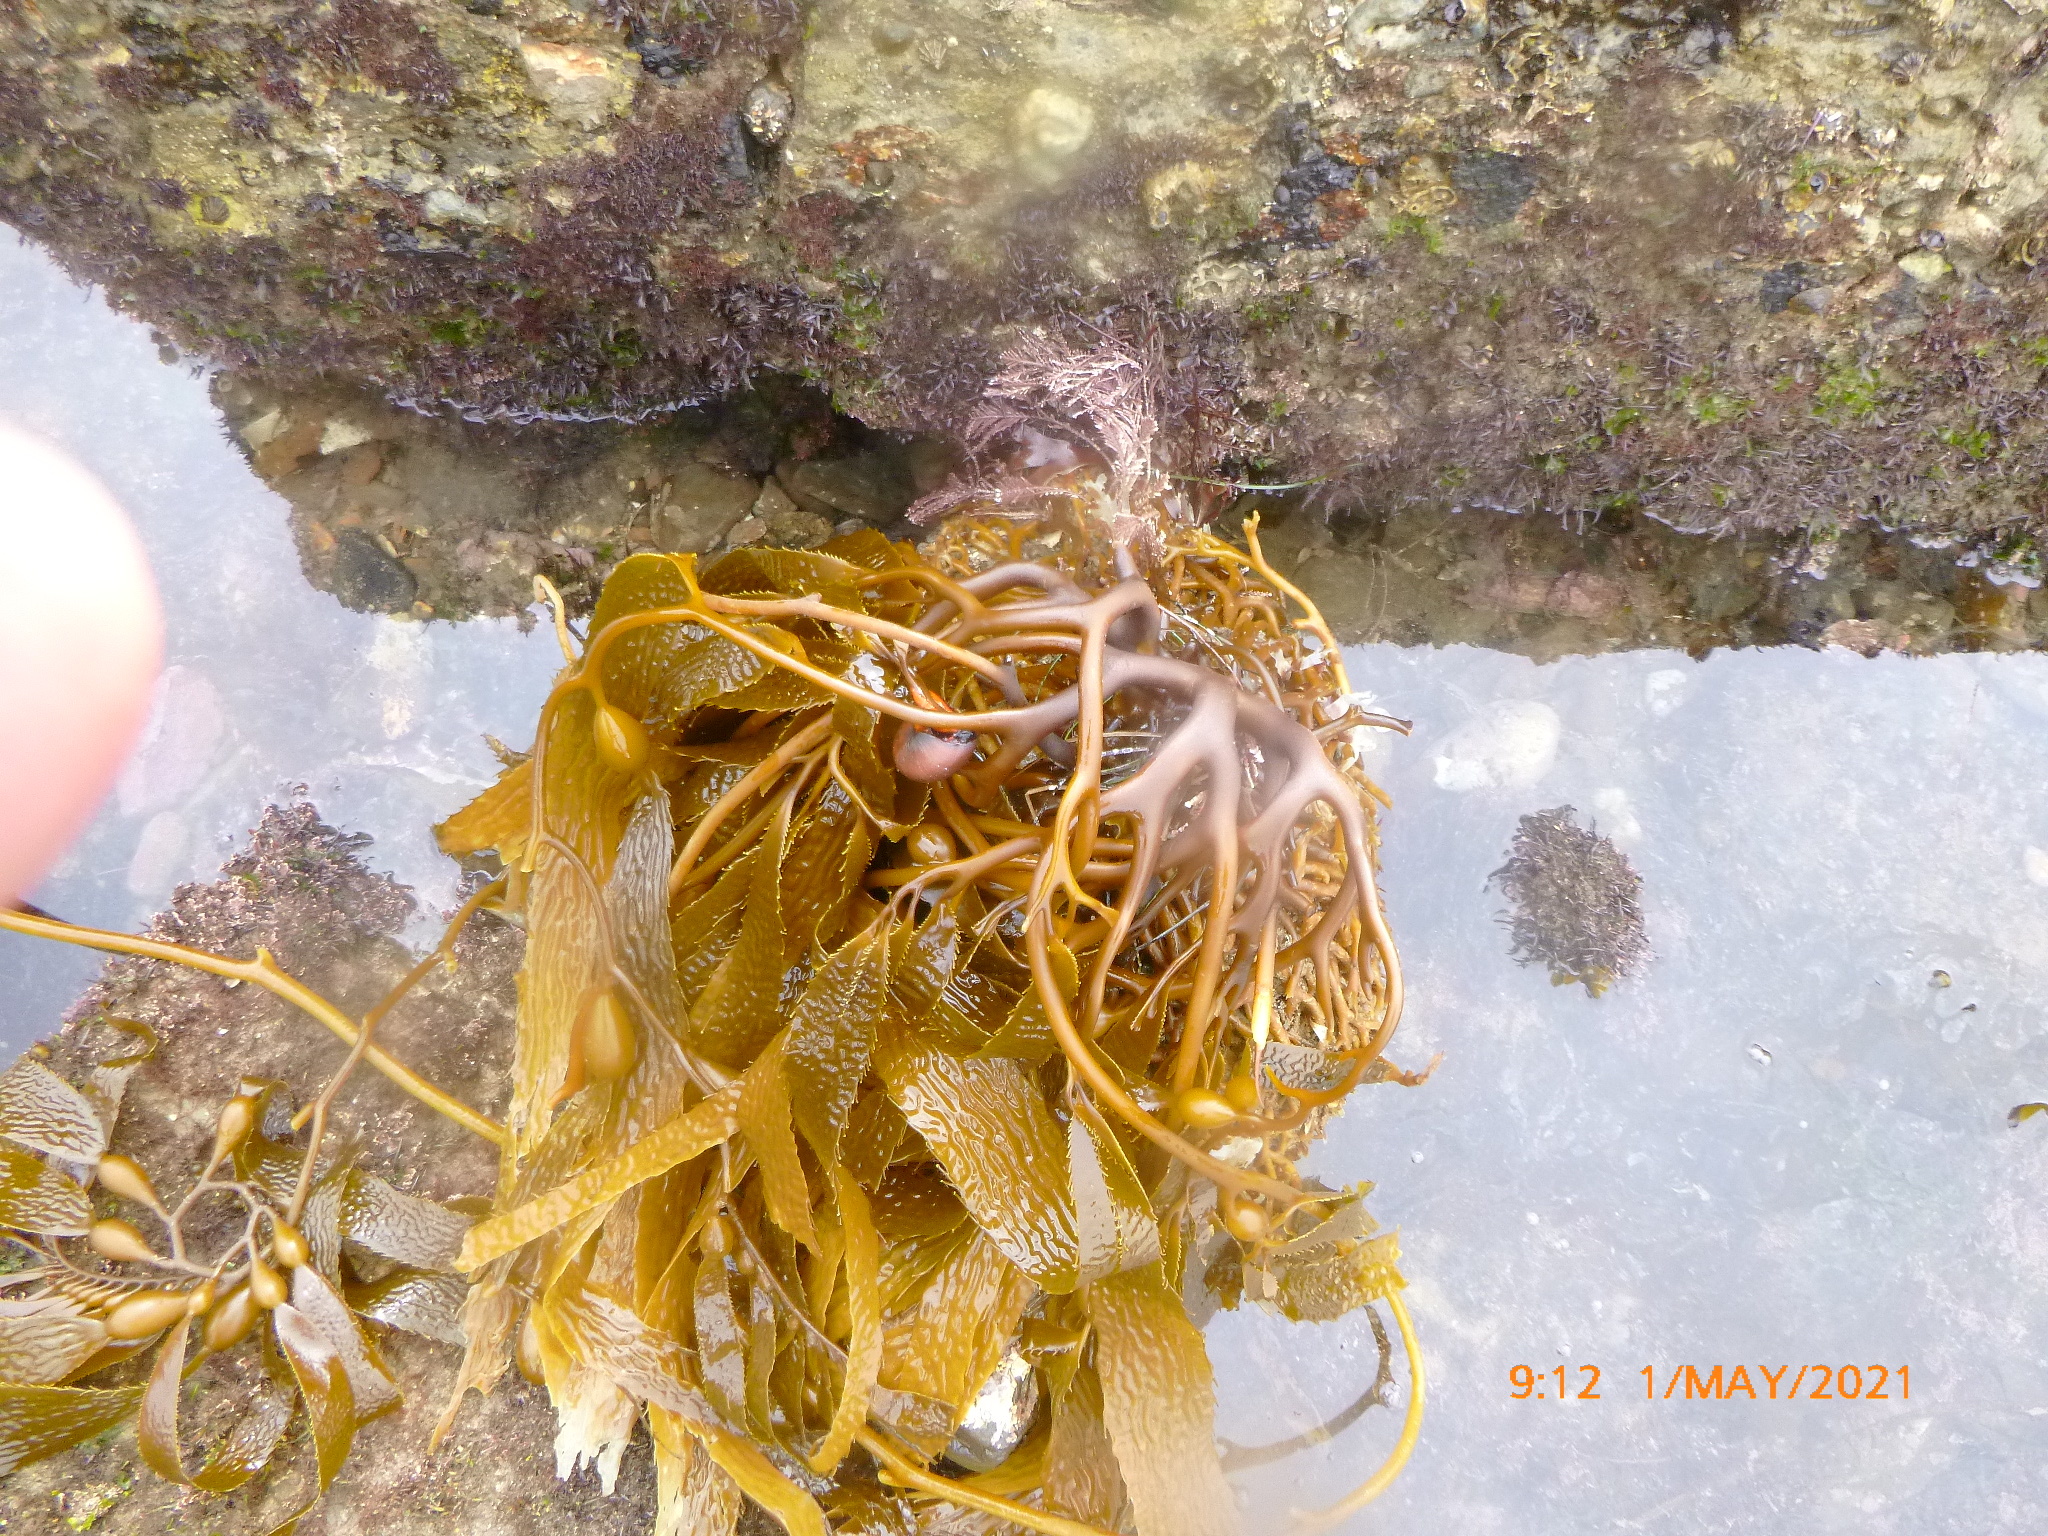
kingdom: Chromista
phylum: Ochrophyta
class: Phaeophyceae
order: Laminariales
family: Laminariaceae
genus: Macrocystis
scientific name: Macrocystis pyrifera
